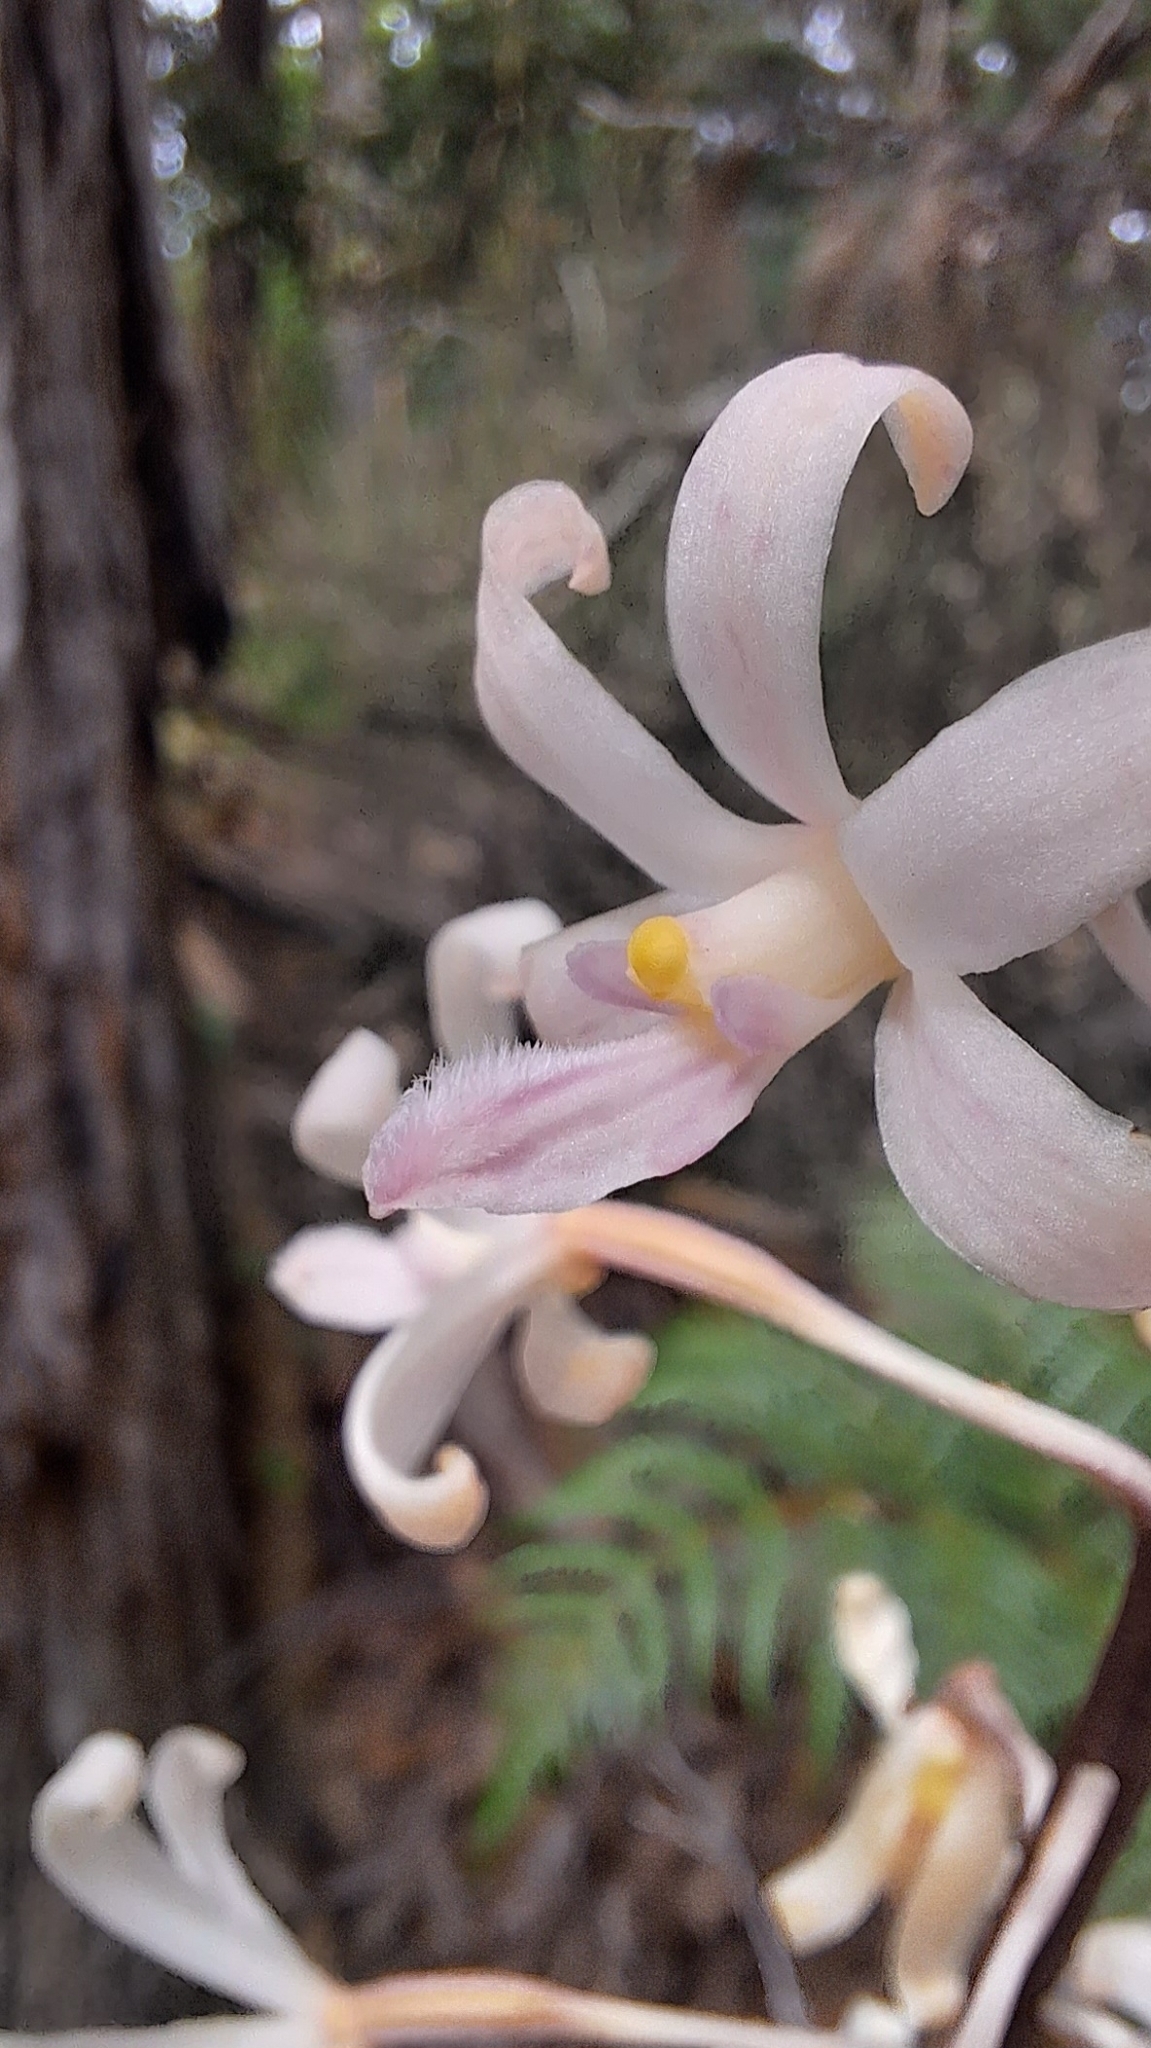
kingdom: Plantae
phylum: Tracheophyta
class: Liliopsida
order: Asparagales
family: Orchidaceae
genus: Dipodium
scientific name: Dipodium roseum
